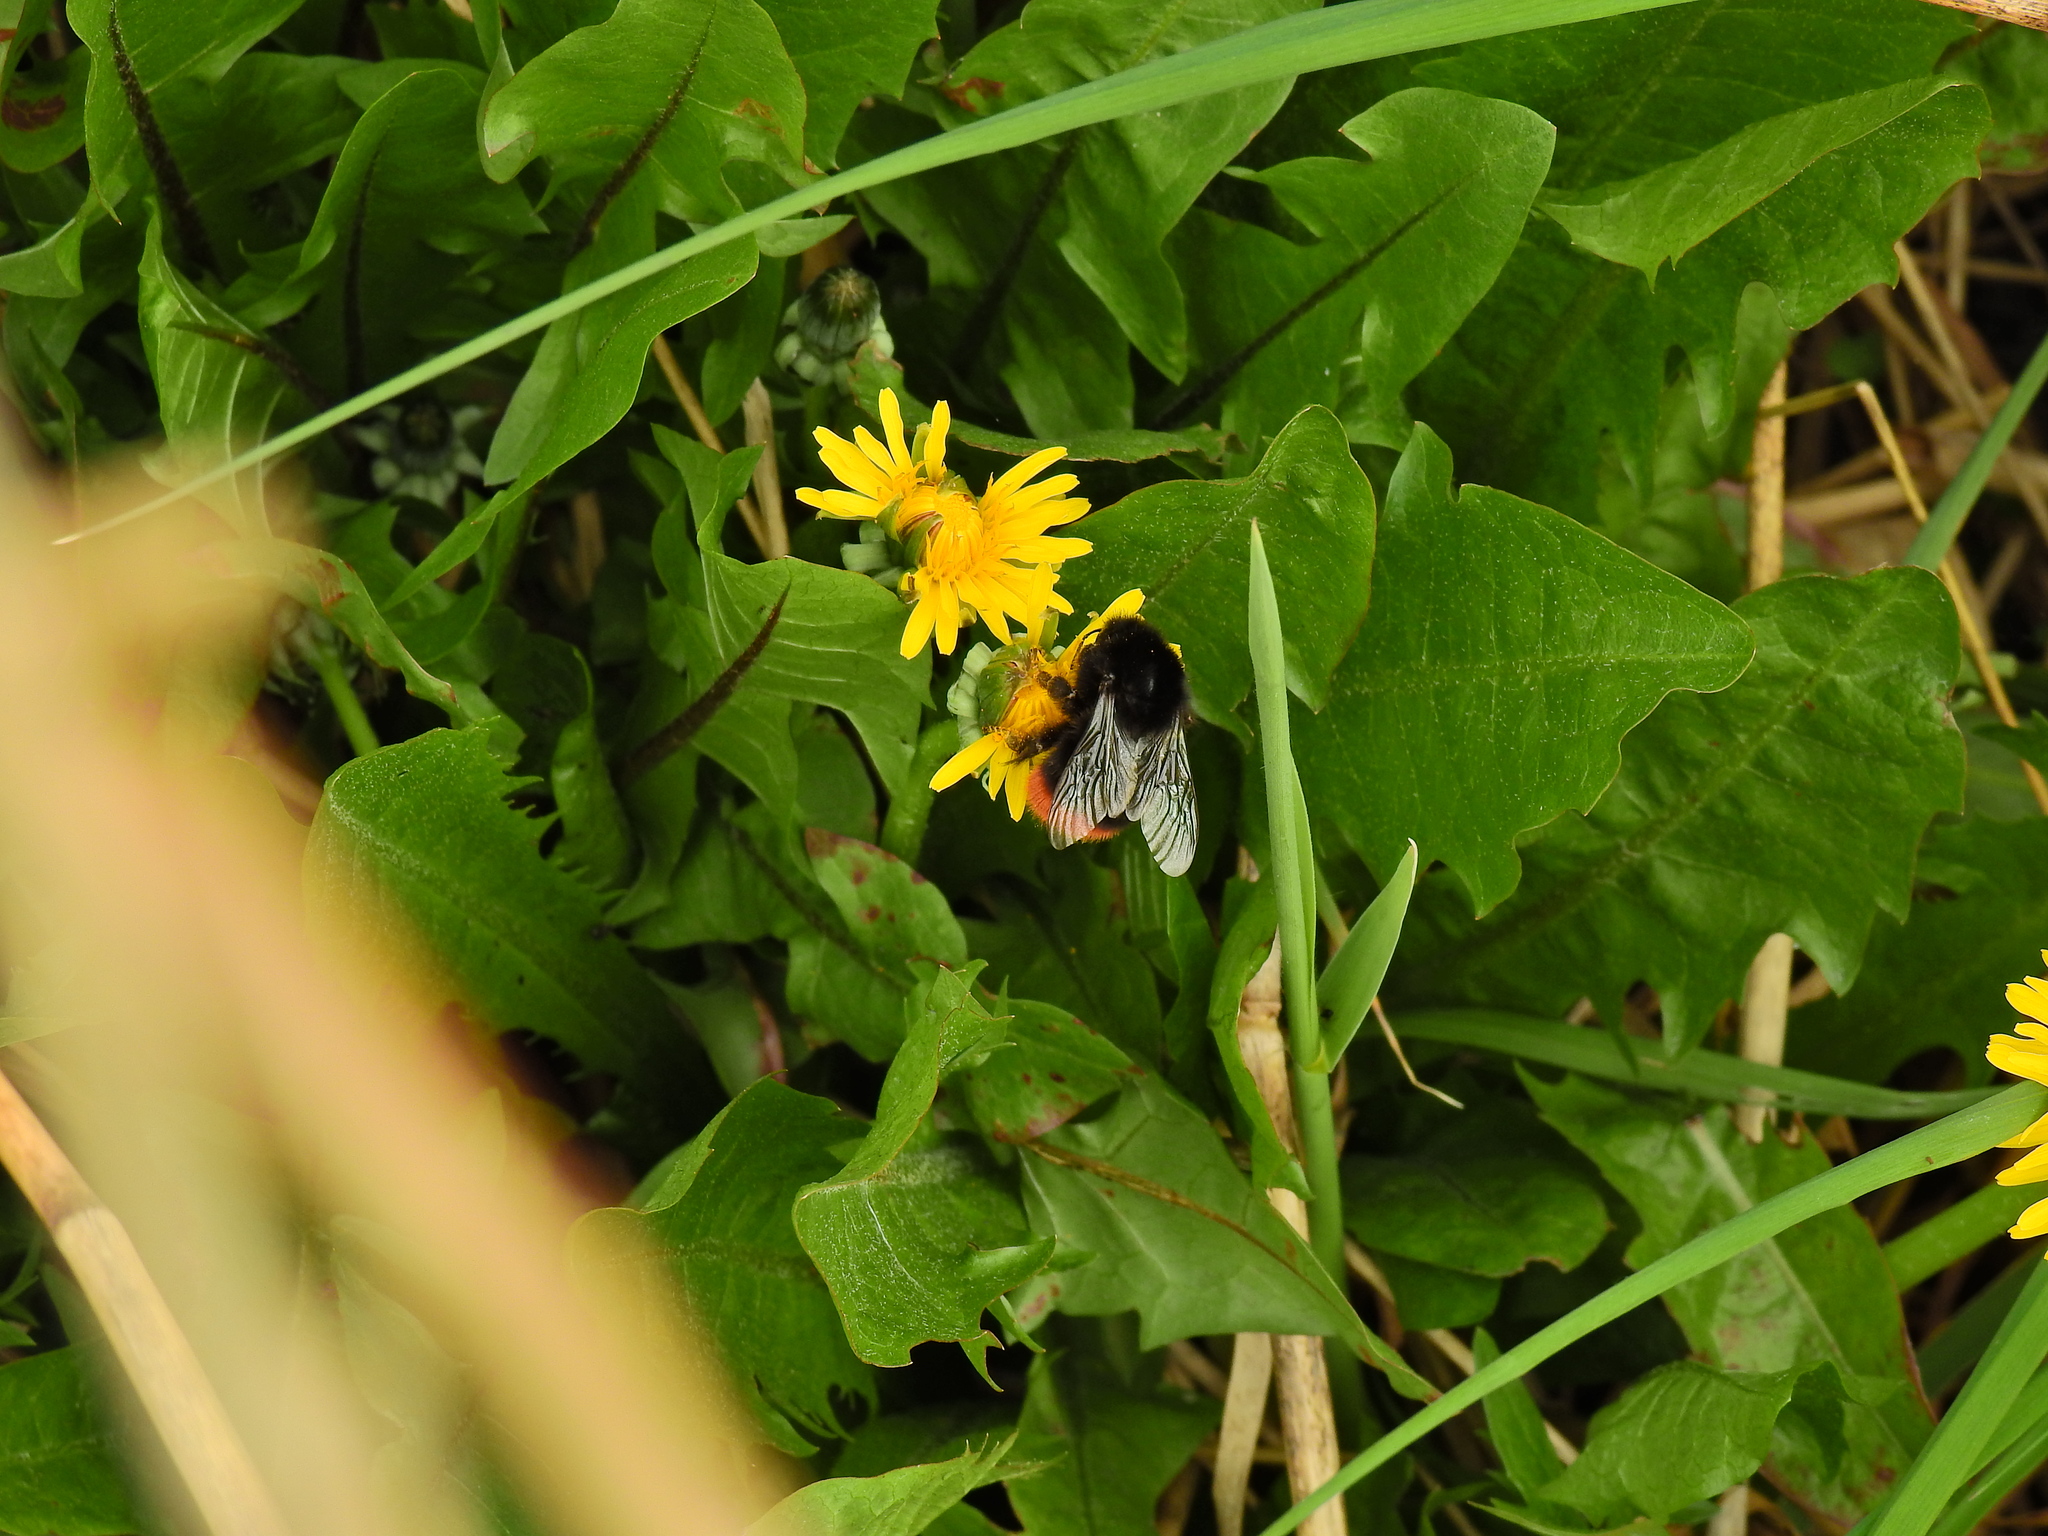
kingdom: Animalia
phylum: Arthropoda
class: Insecta
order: Hymenoptera
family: Apidae
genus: Bombus
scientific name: Bombus lapidarius
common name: Large red-tailed humble-bee
